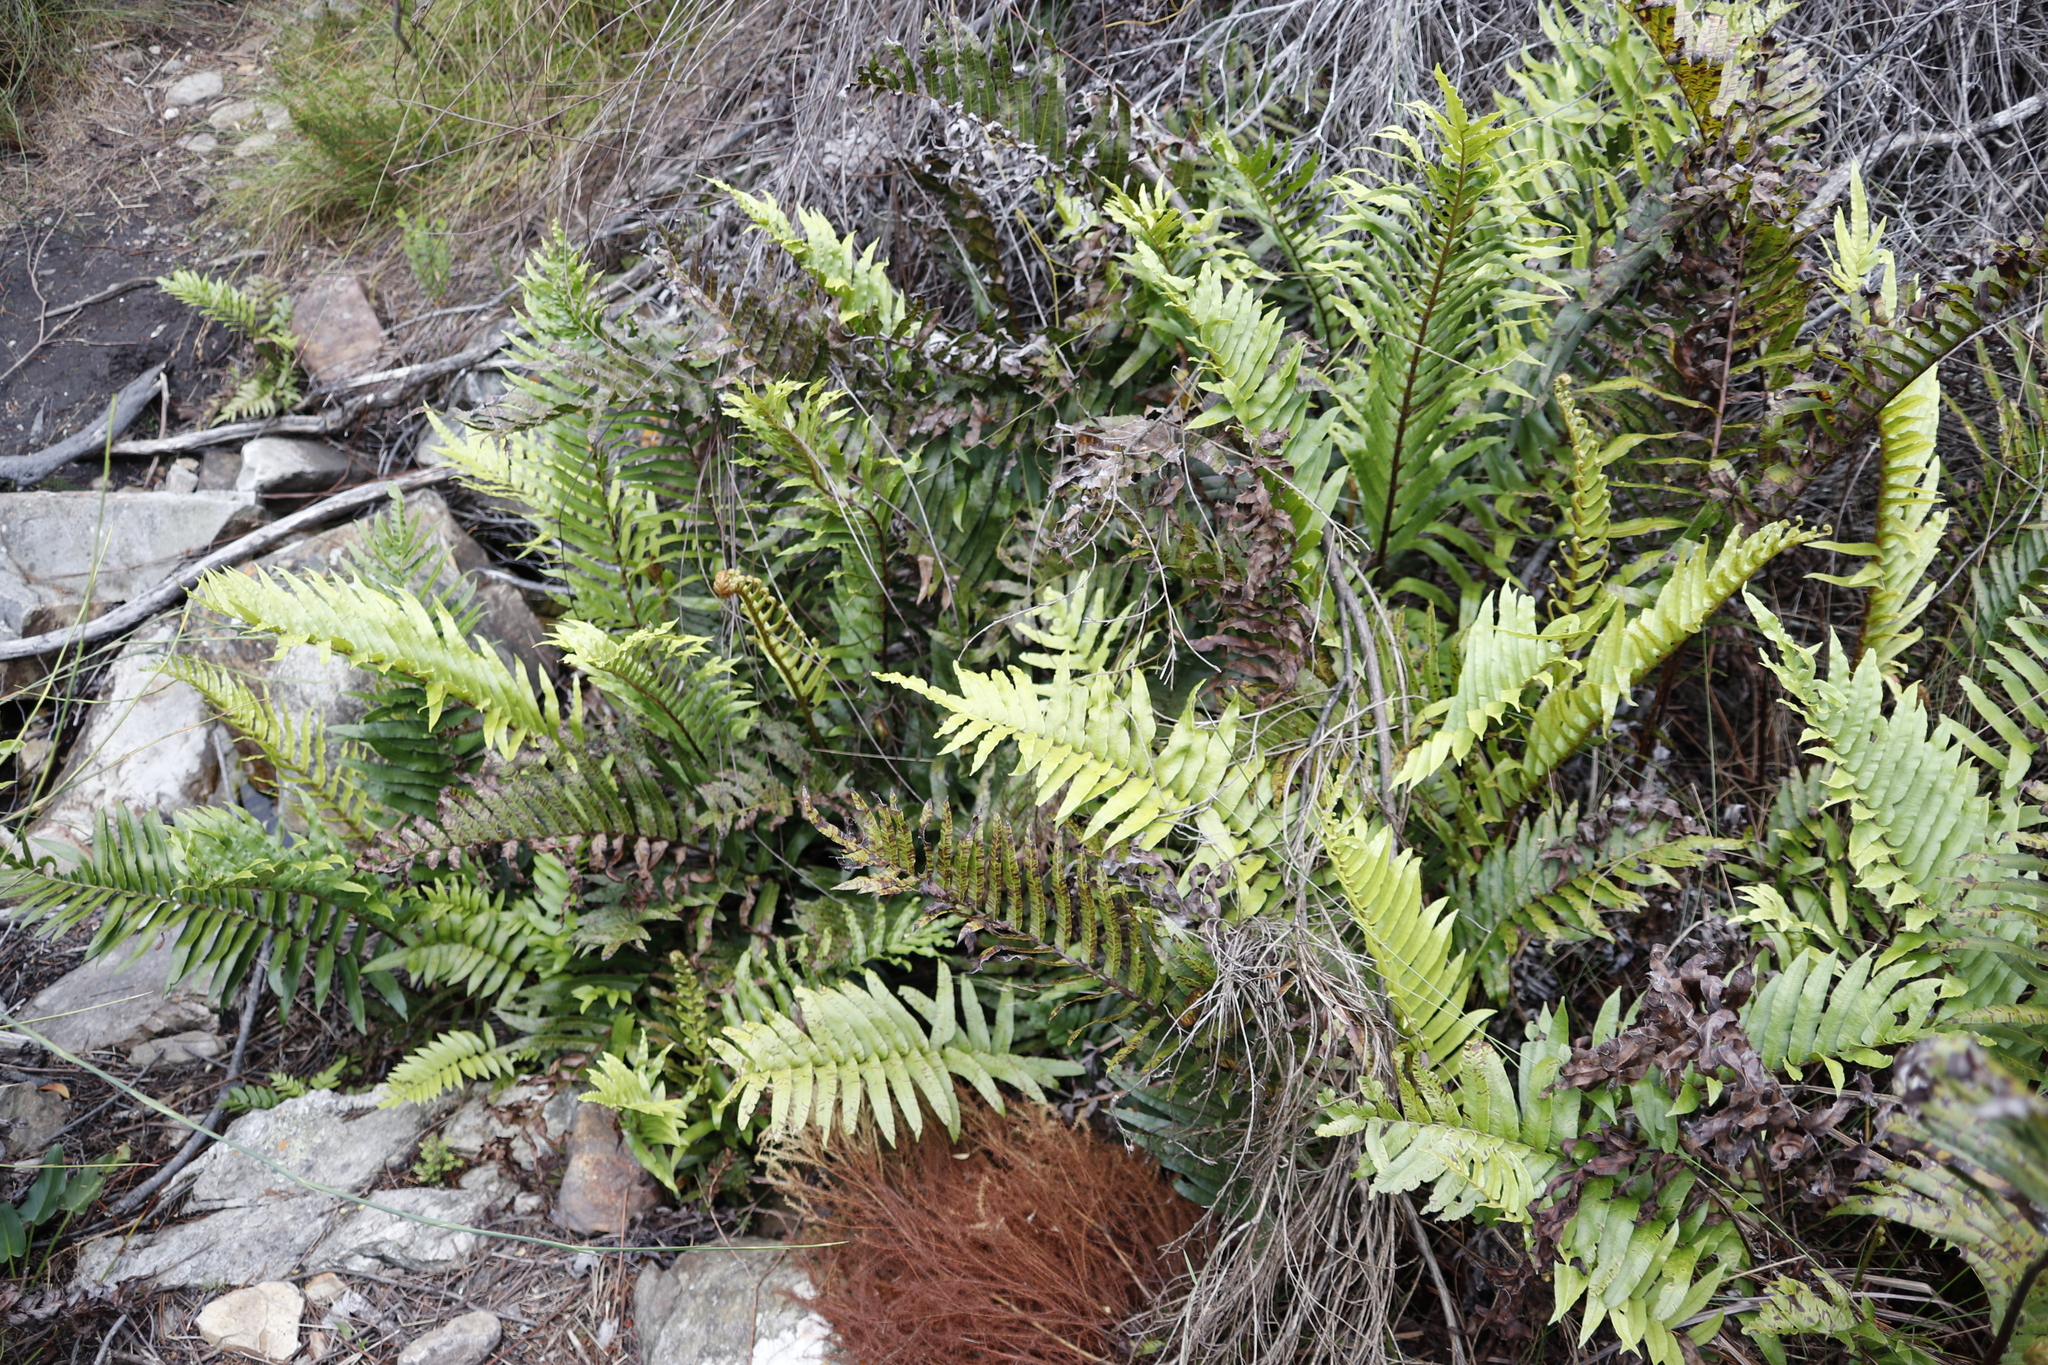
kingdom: Plantae
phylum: Tracheophyta
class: Polypodiopsida
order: Polypodiales
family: Blechnaceae
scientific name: Blechnaceae
